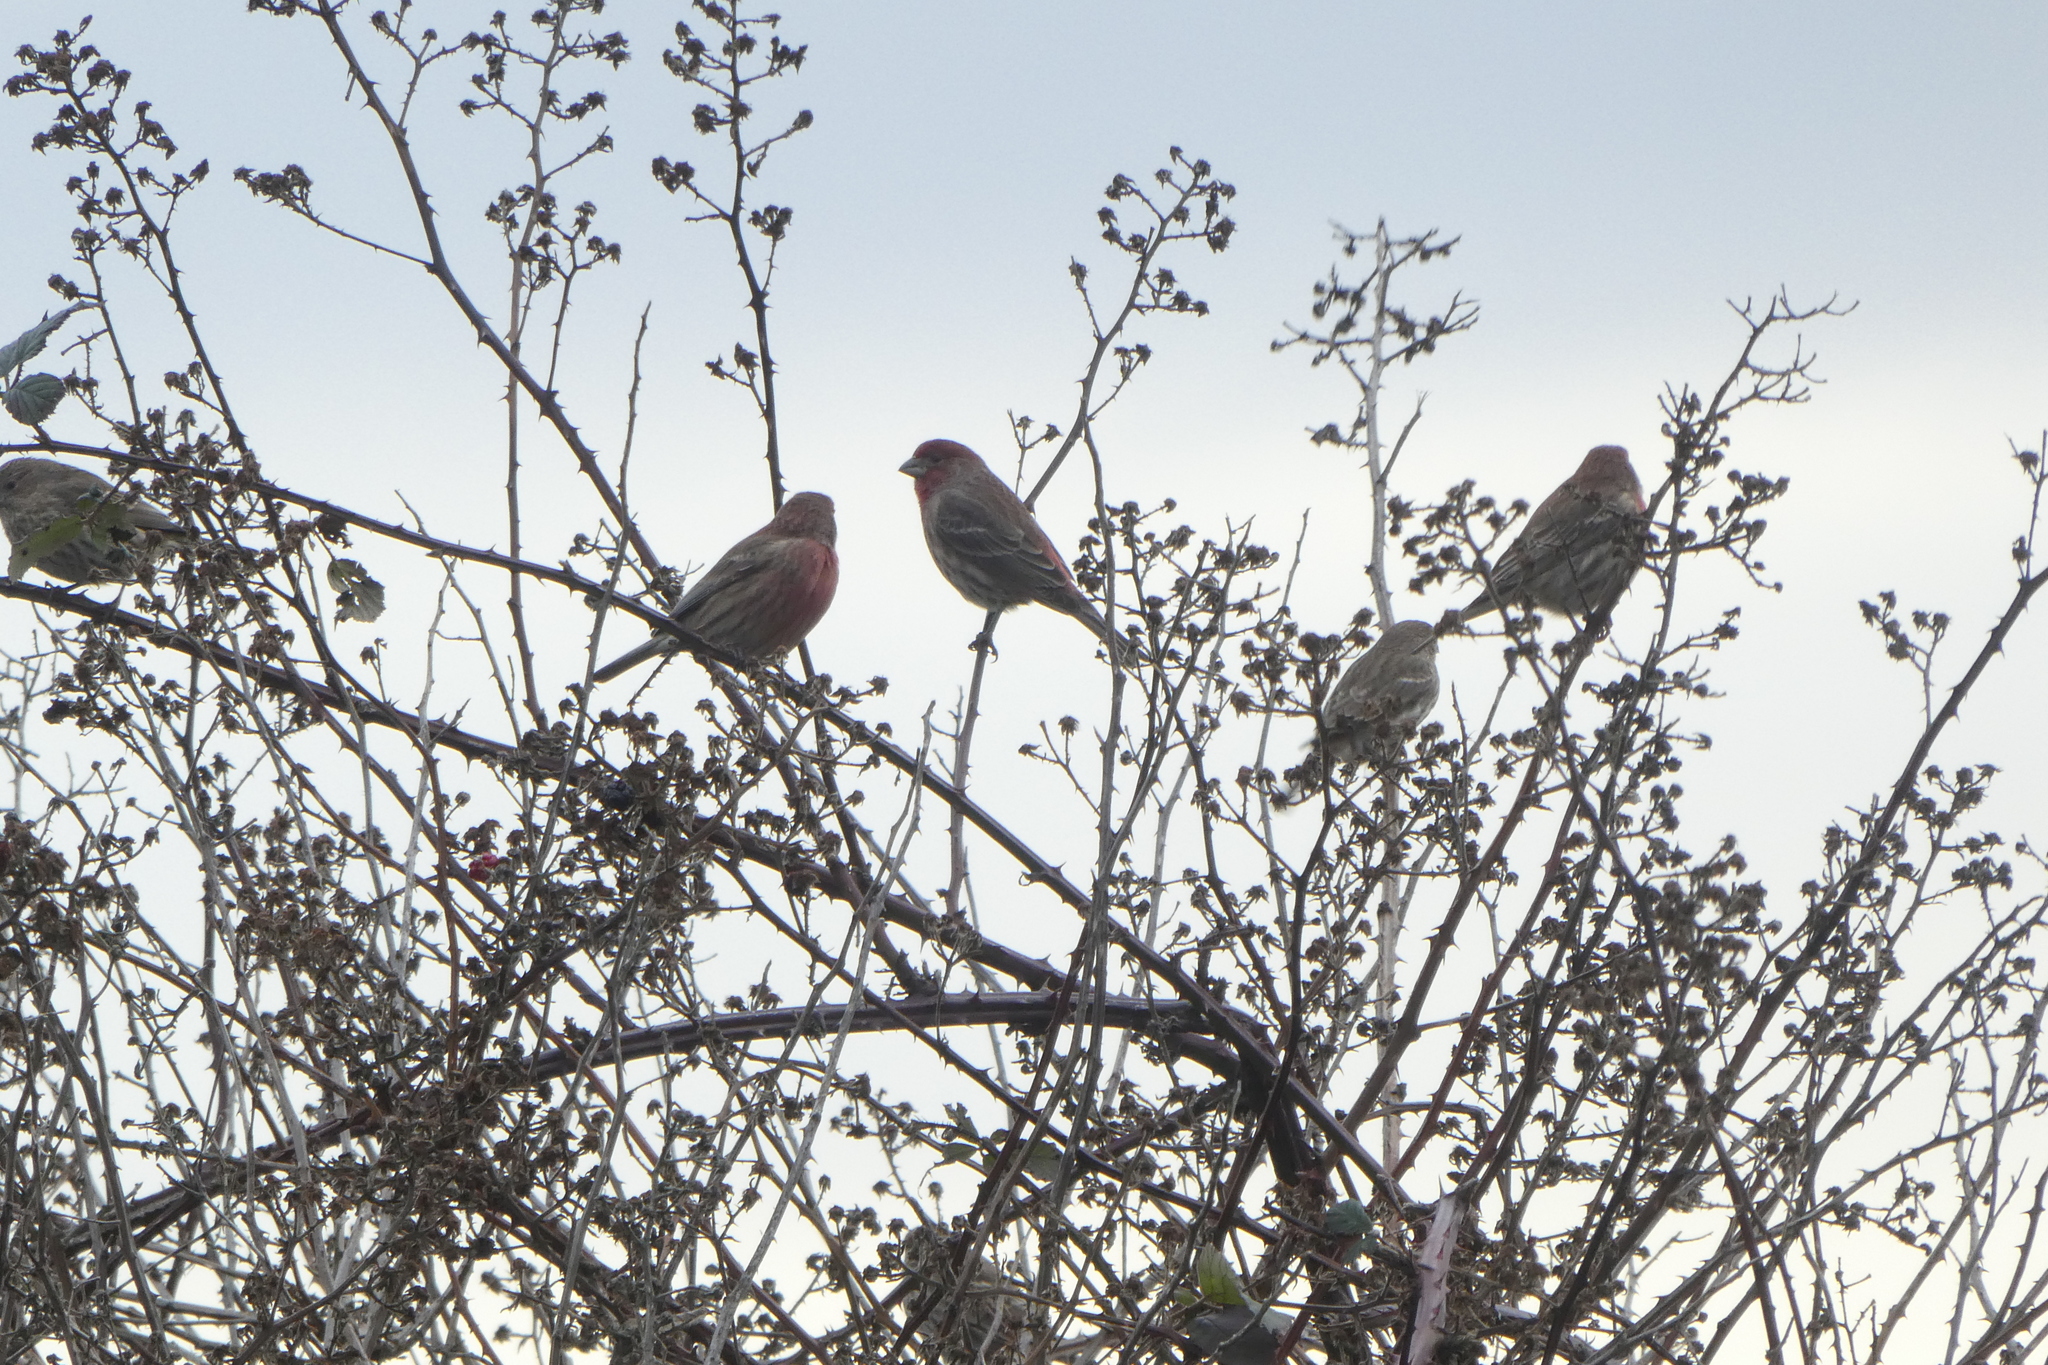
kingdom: Animalia
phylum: Chordata
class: Aves
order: Passeriformes
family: Fringillidae
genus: Haemorhous
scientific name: Haemorhous mexicanus
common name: House finch
